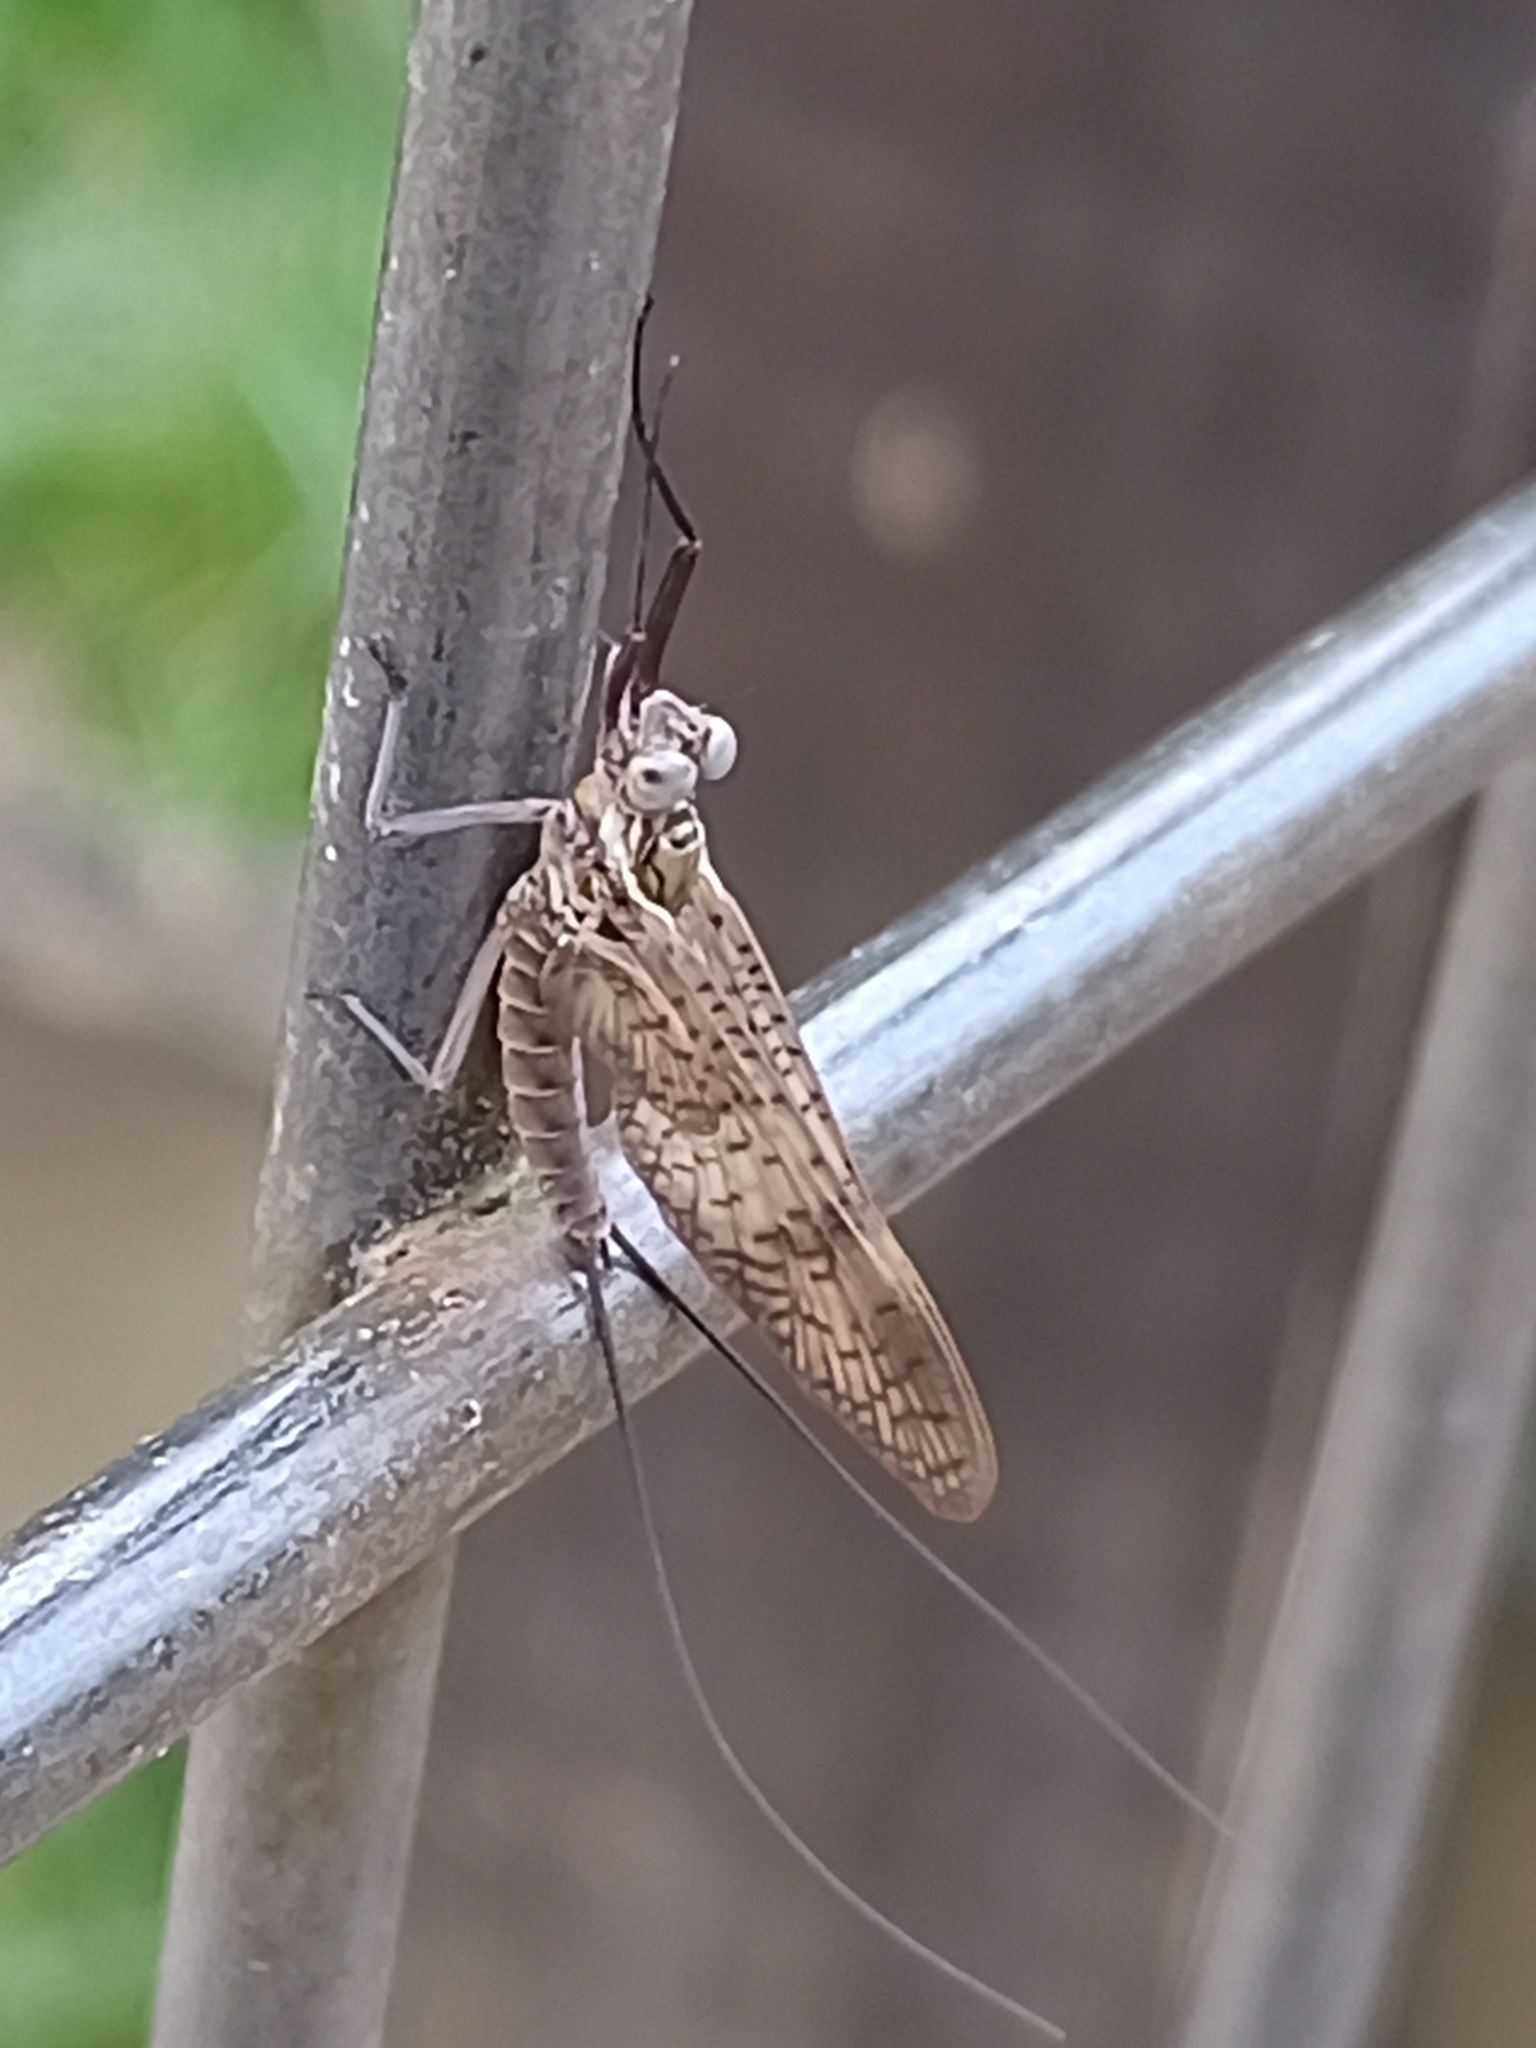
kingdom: Animalia
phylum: Arthropoda
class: Insecta
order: Ephemeroptera
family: Heptageniidae
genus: Ecdyonurus
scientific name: Ecdyonurus codinai
